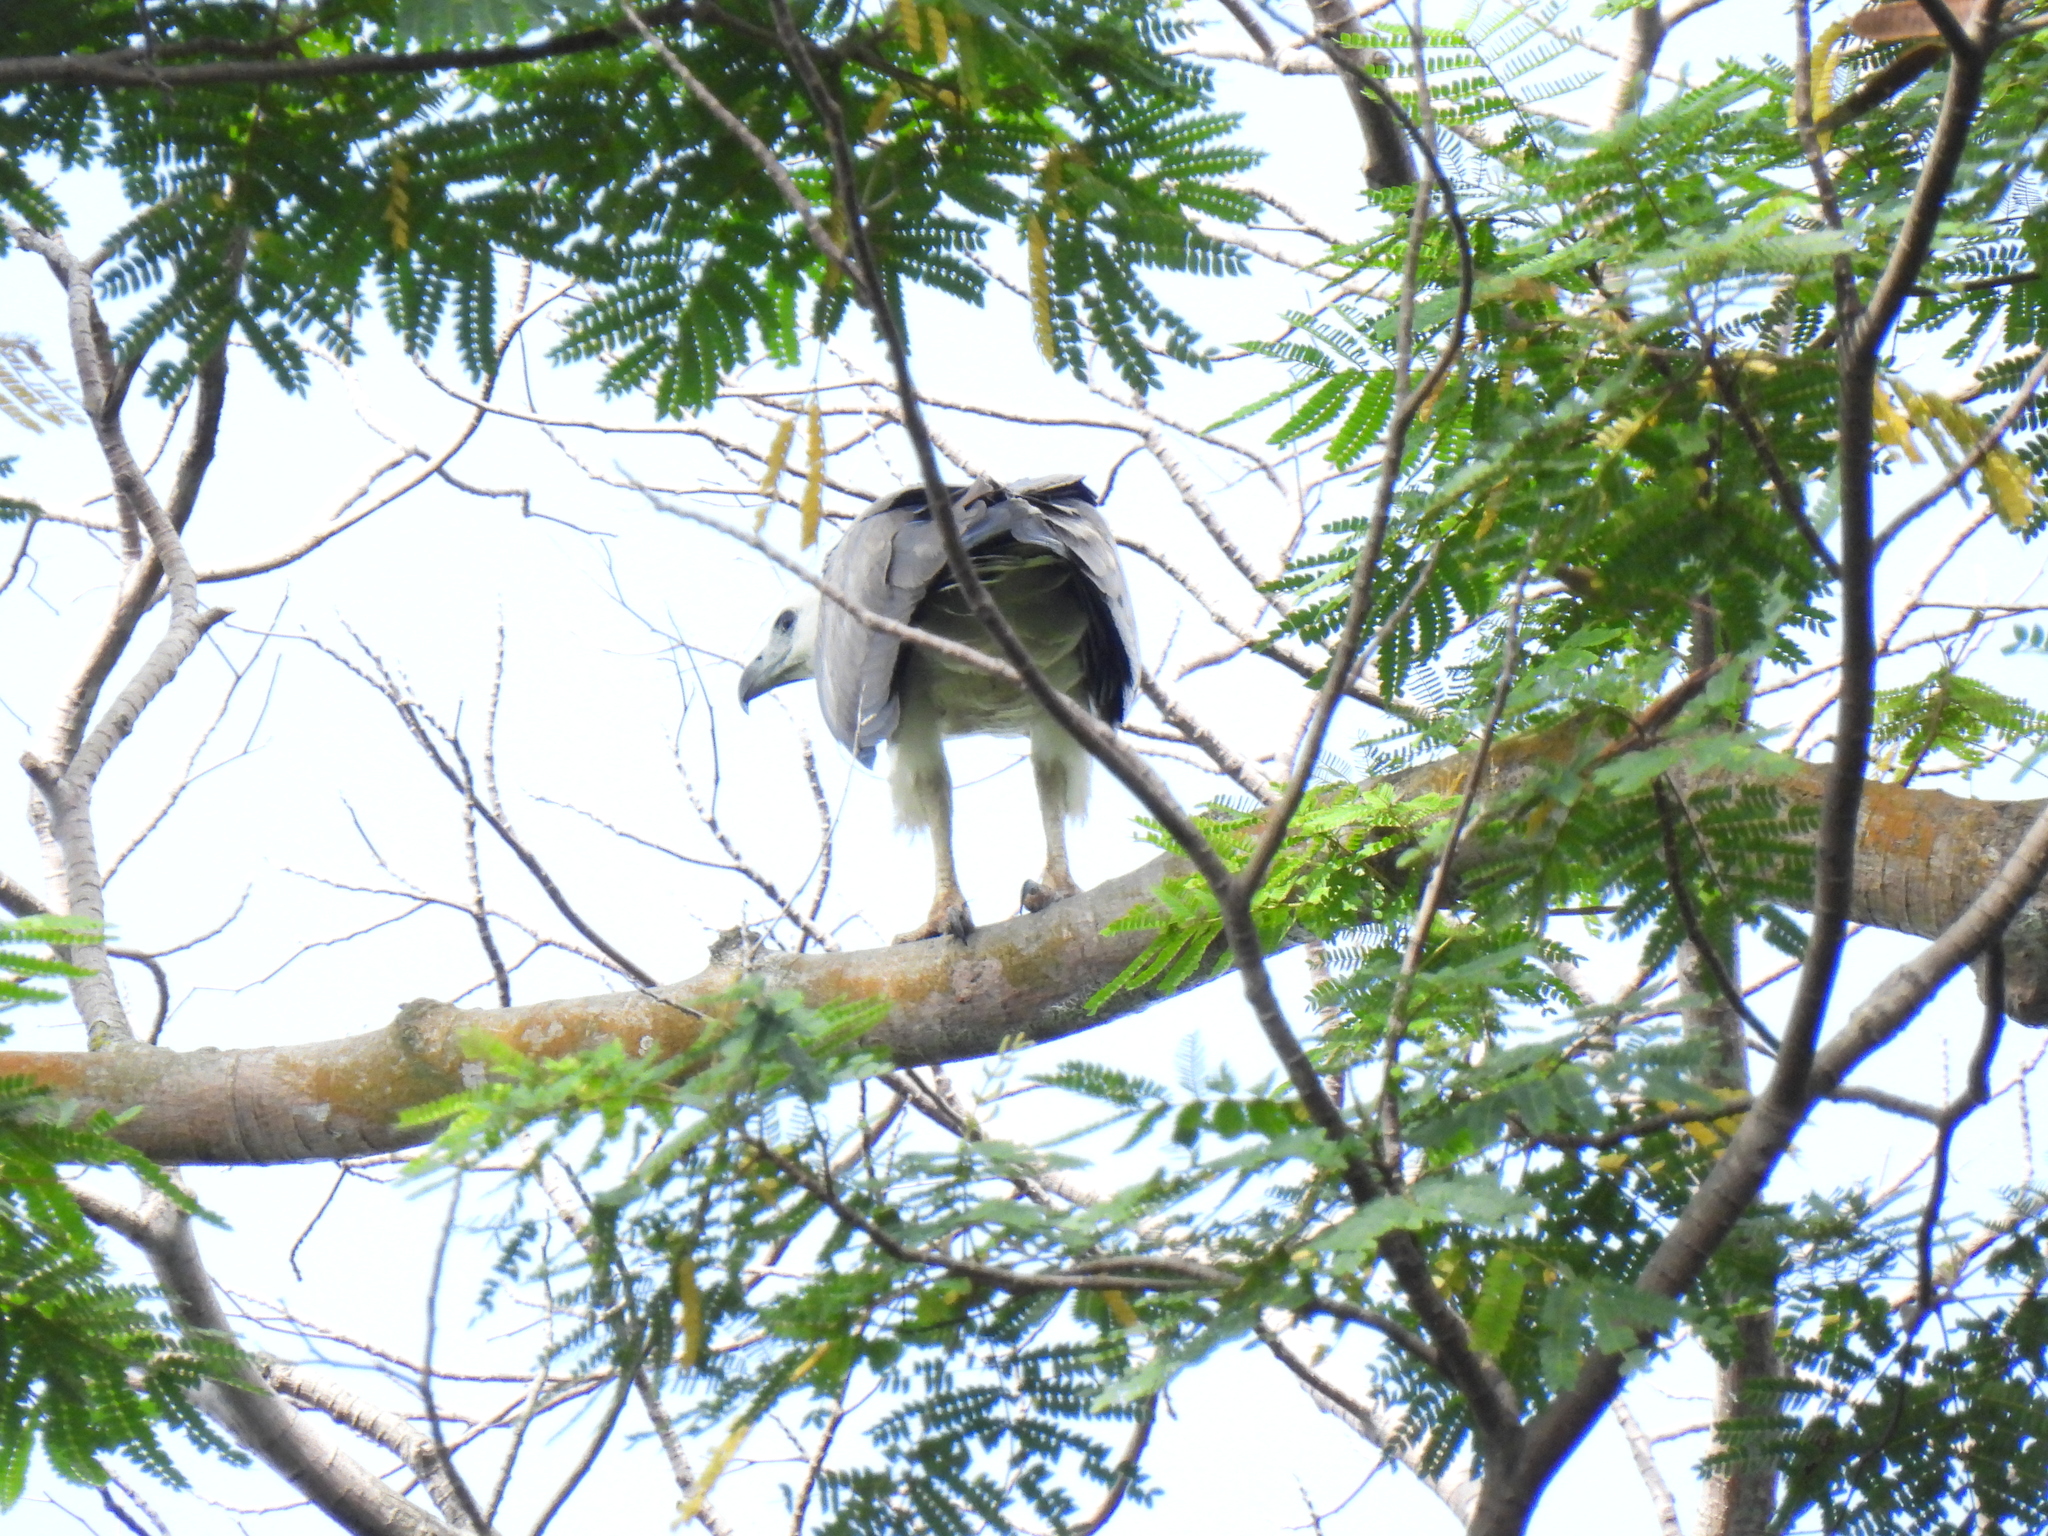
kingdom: Animalia
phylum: Chordata
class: Aves
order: Accipitriformes
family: Accipitridae
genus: Haliaeetus
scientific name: Haliaeetus leucogaster
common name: White-bellied sea eagle
